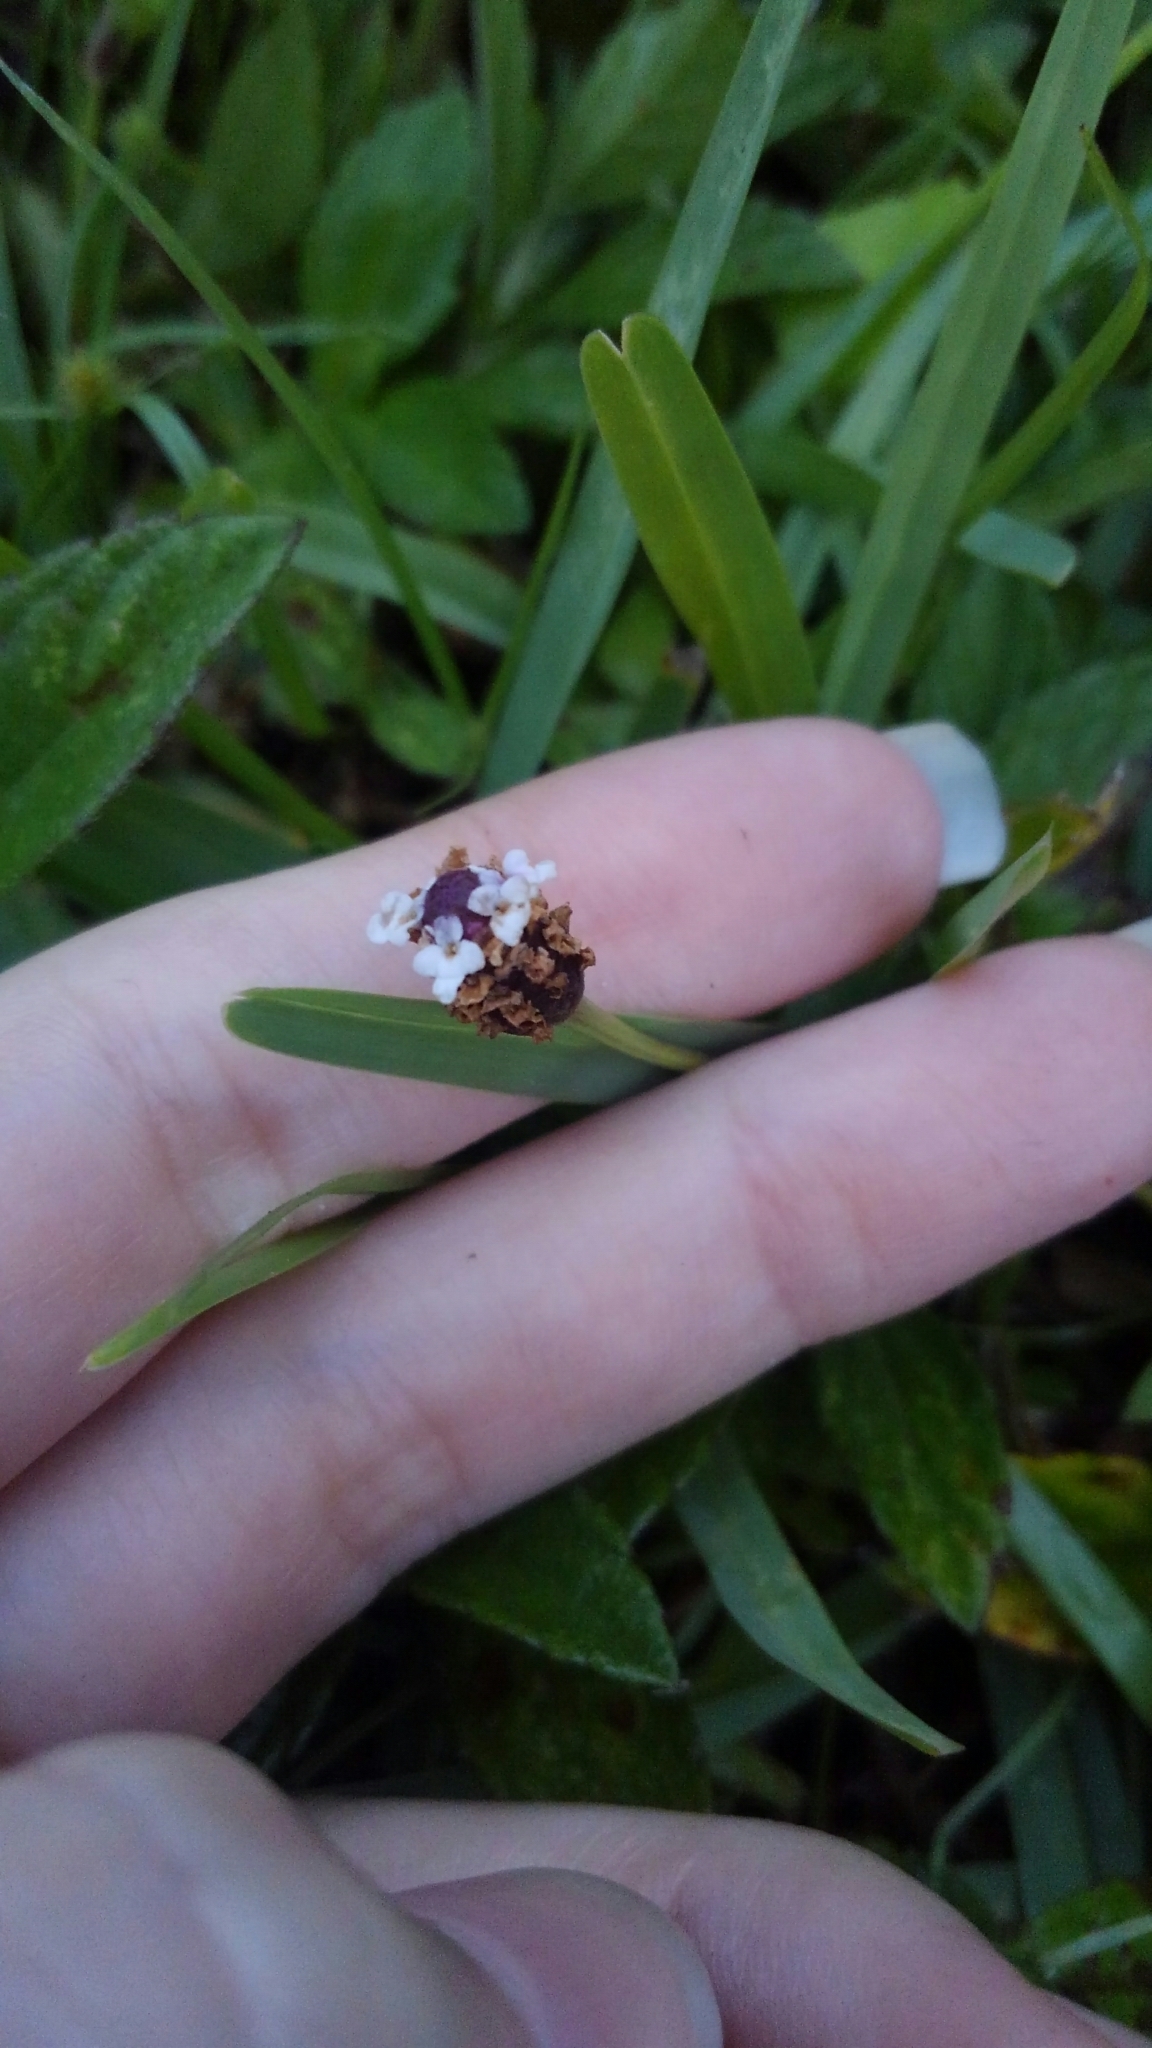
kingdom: Plantae
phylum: Tracheophyta
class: Magnoliopsida
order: Lamiales
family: Verbenaceae
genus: Phyla
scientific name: Phyla nodiflora
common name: Frogfruit
